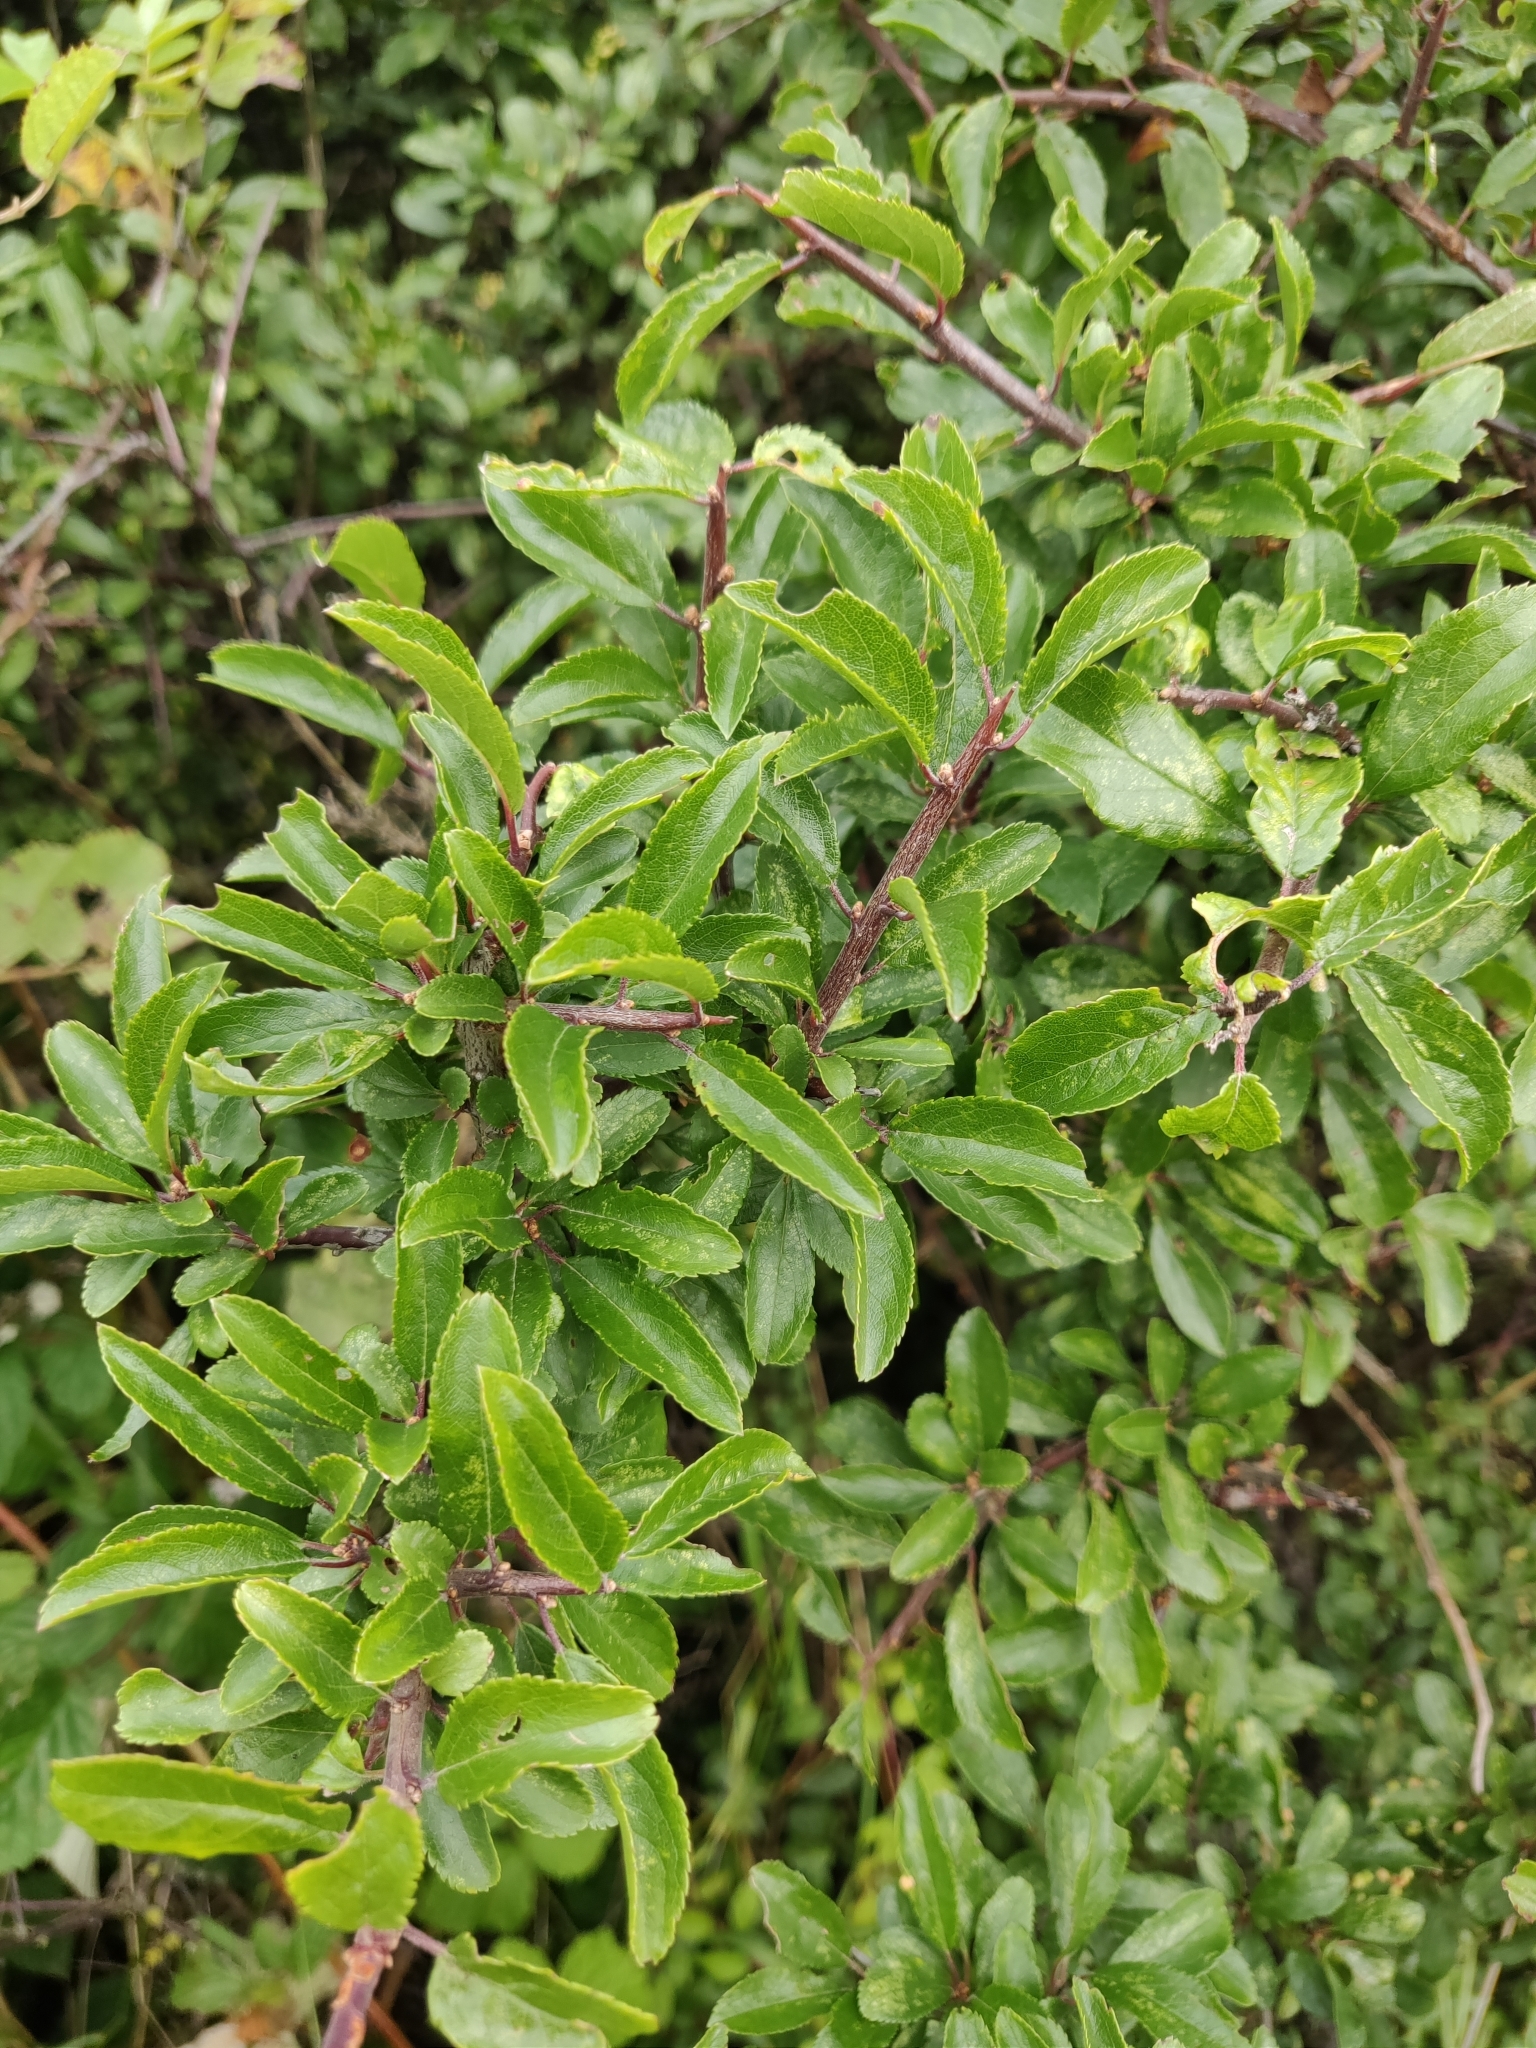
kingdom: Plantae
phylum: Tracheophyta
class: Magnoliopsida
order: Rosales
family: Rosaceae
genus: Prunus
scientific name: Prunus spinosa
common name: Blackthorn
